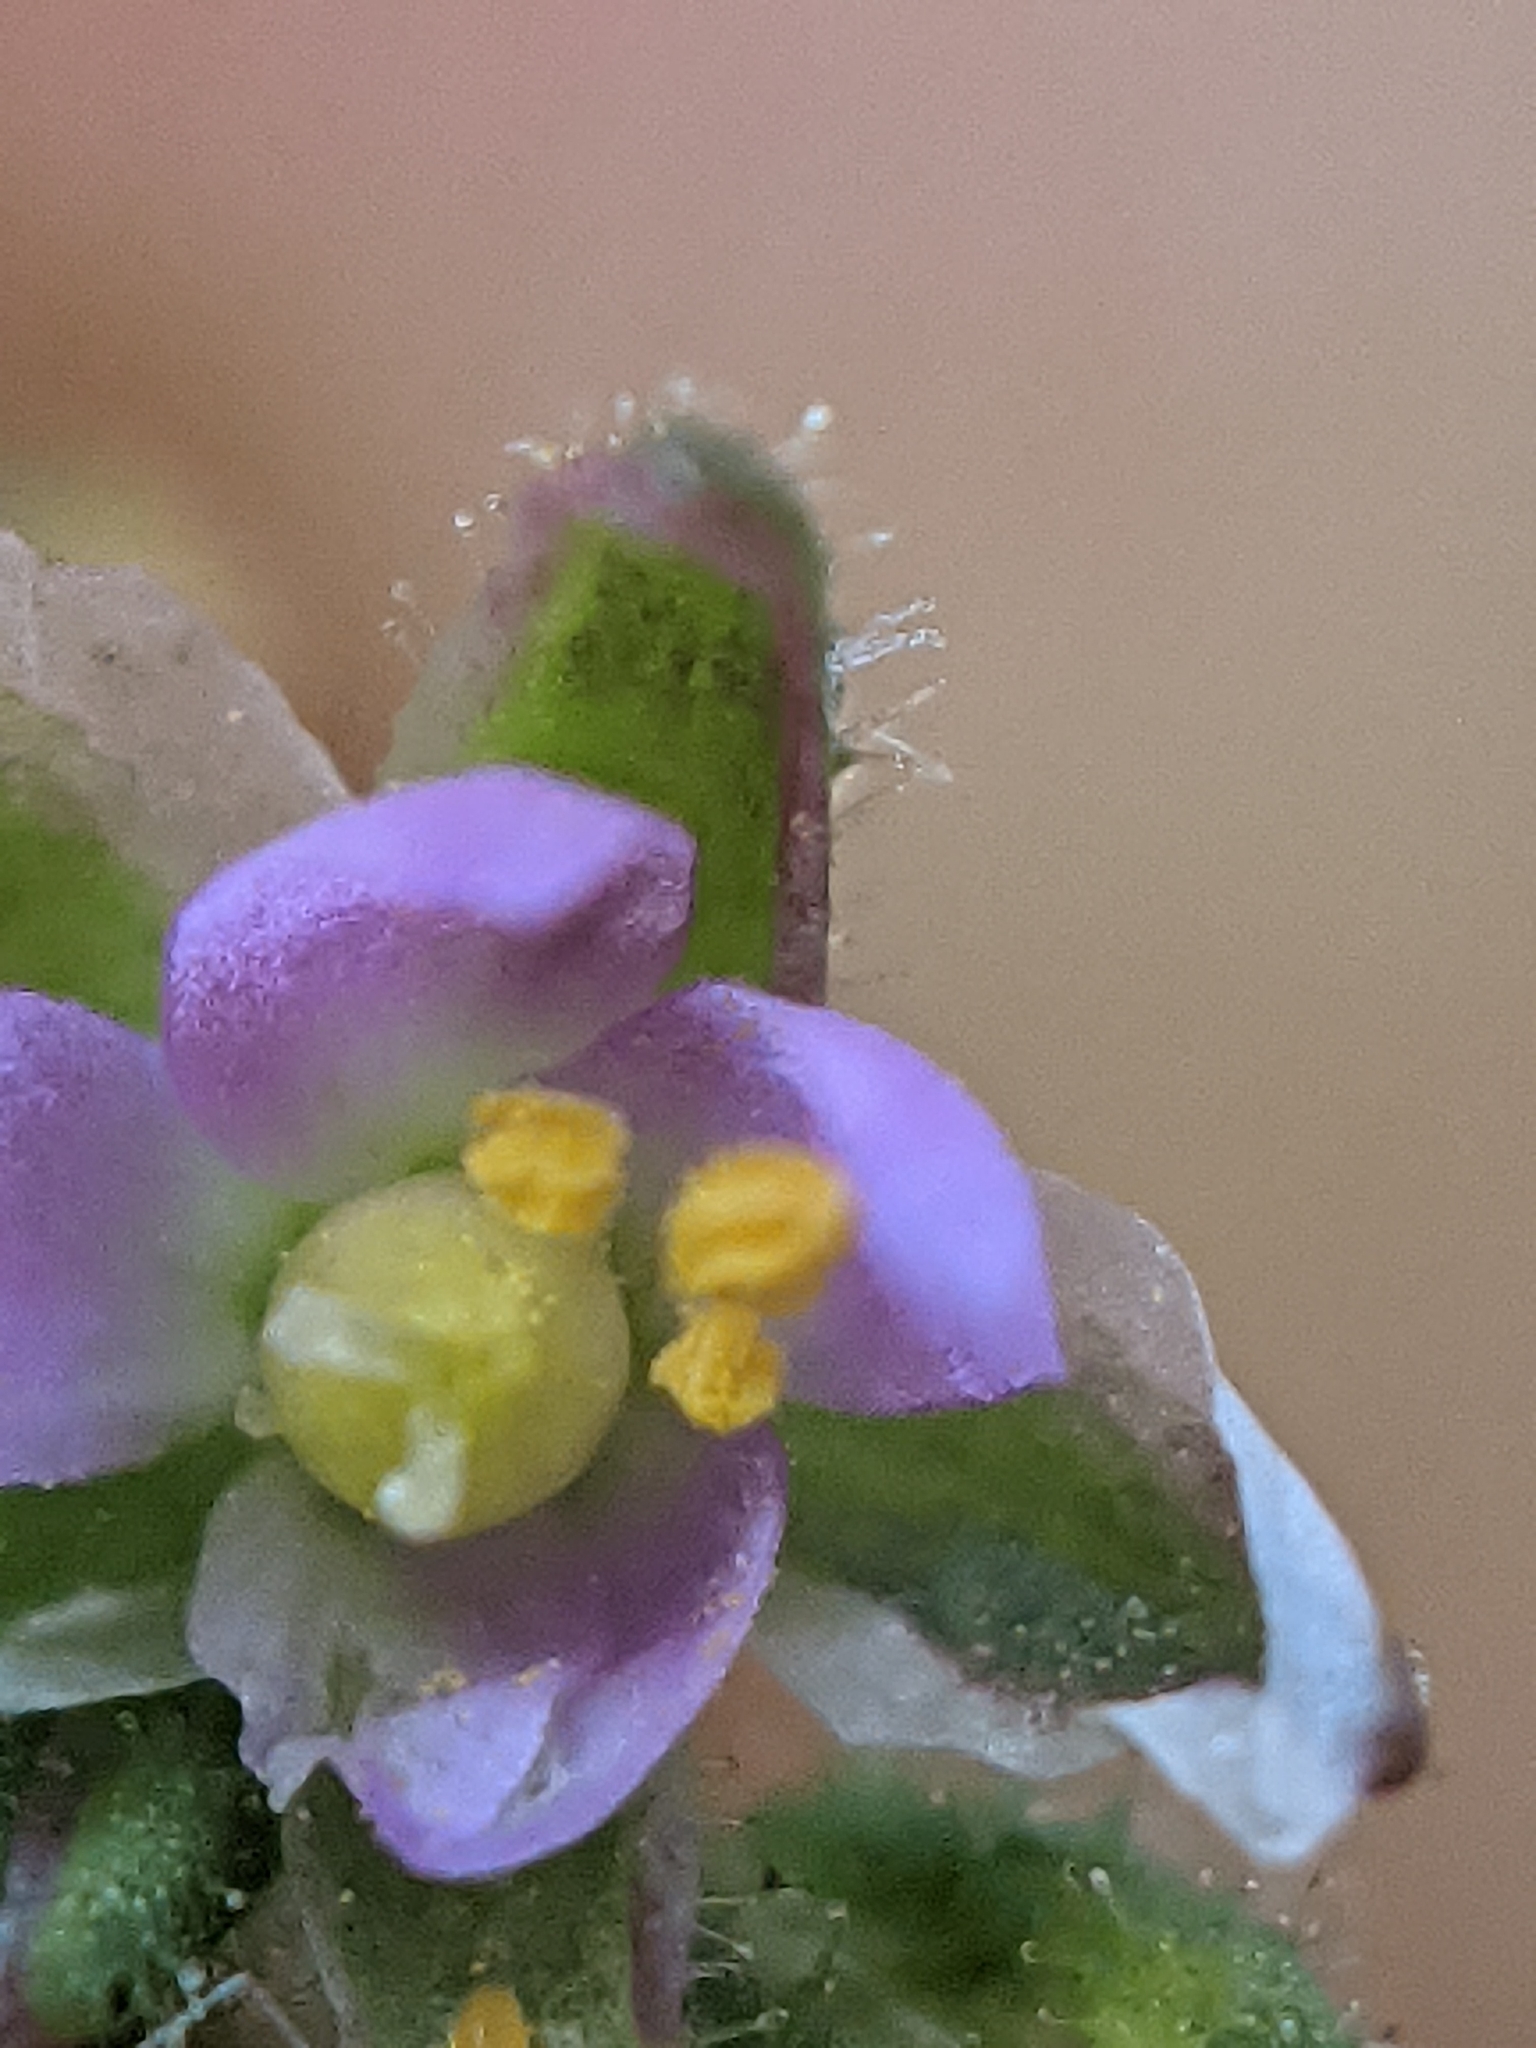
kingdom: Plantae
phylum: Tracheophyta
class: Magnoliopsida
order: Caryophyllales
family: Caryophyllaceae
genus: Spergularia
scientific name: Spergularia marina
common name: Lesser sea-spurrey
